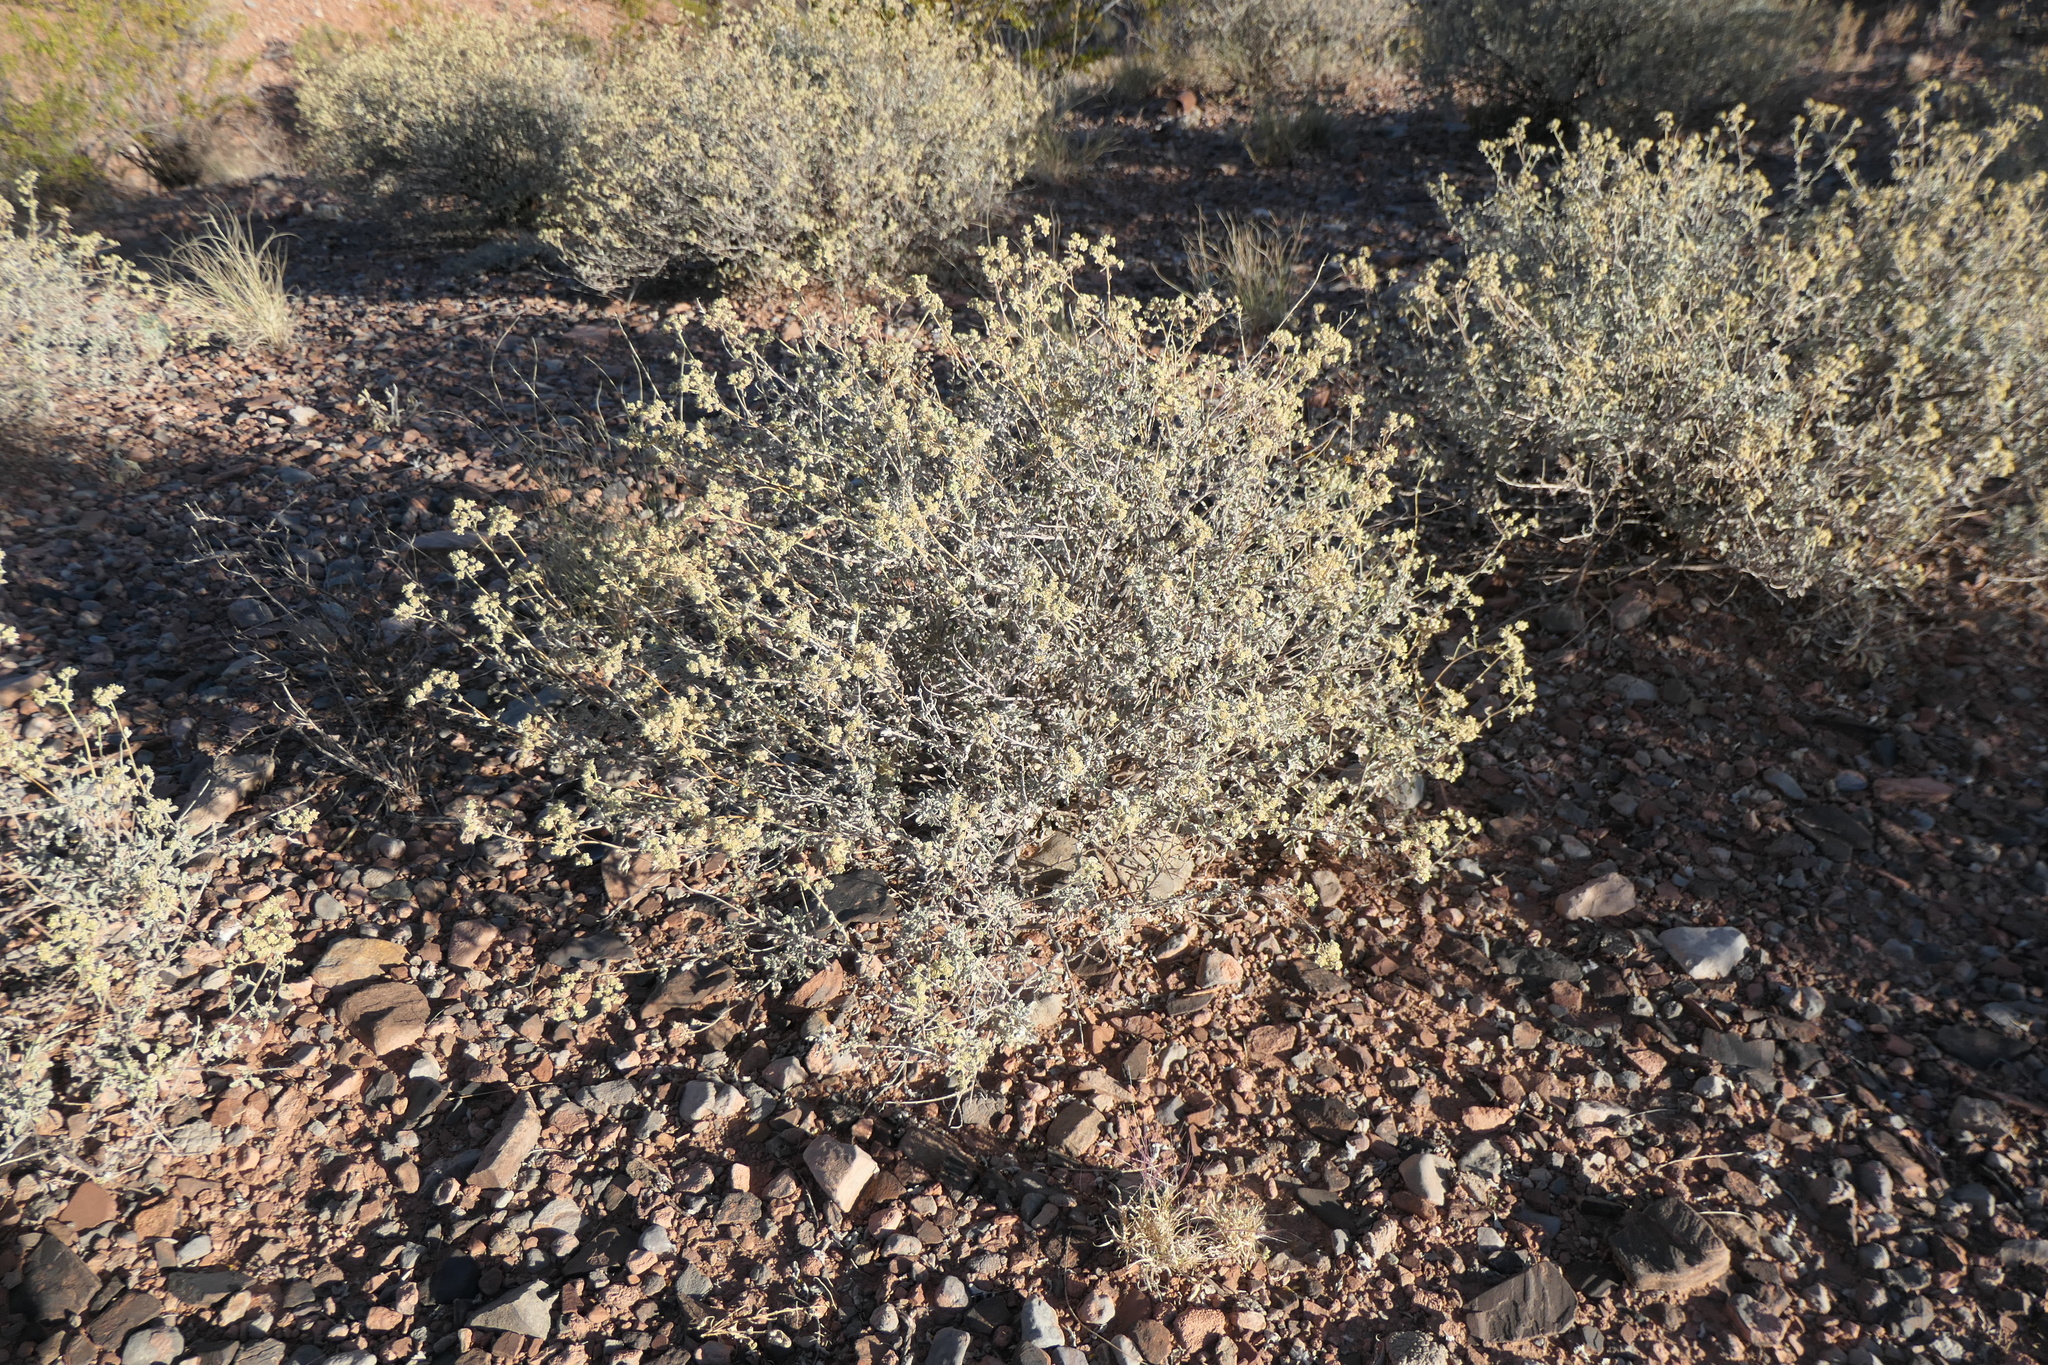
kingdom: Plantae
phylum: Tracheophyta
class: Magnoliopsida
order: Asterales
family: Asteraceae
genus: Parthenium
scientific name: Parthenium incanum
